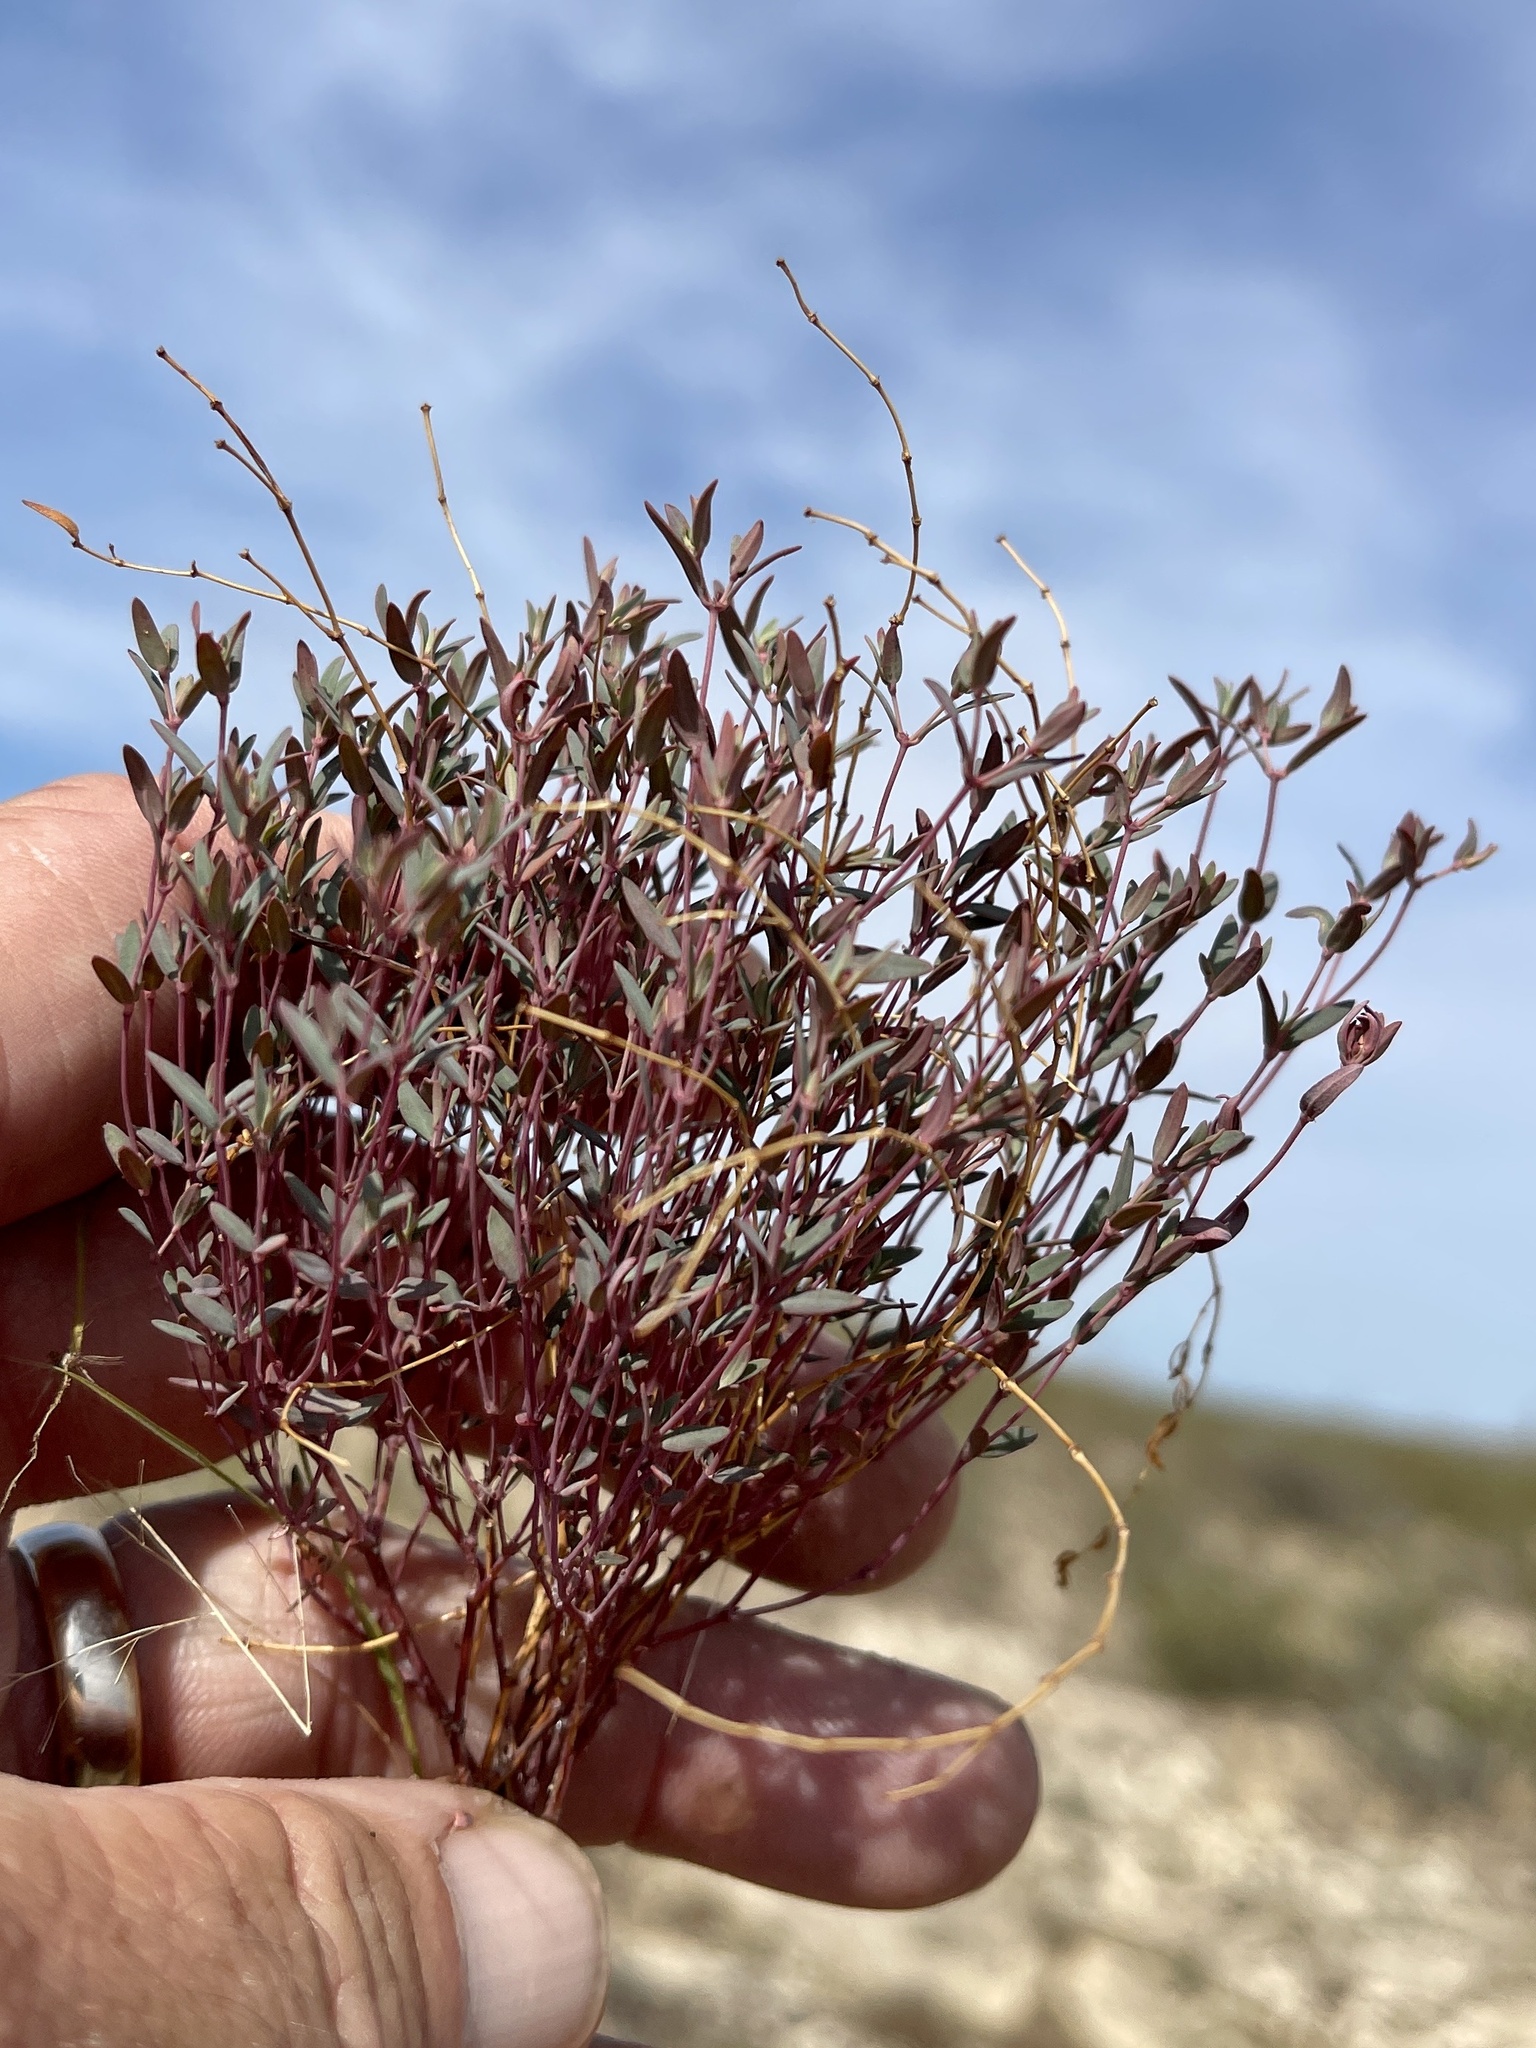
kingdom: Plantae
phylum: Tracheophyta
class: Magnoliopsida
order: Malpighiales
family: Euphorbiaceae
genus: Euphorbia
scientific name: Euphorbia chaetocalyx
